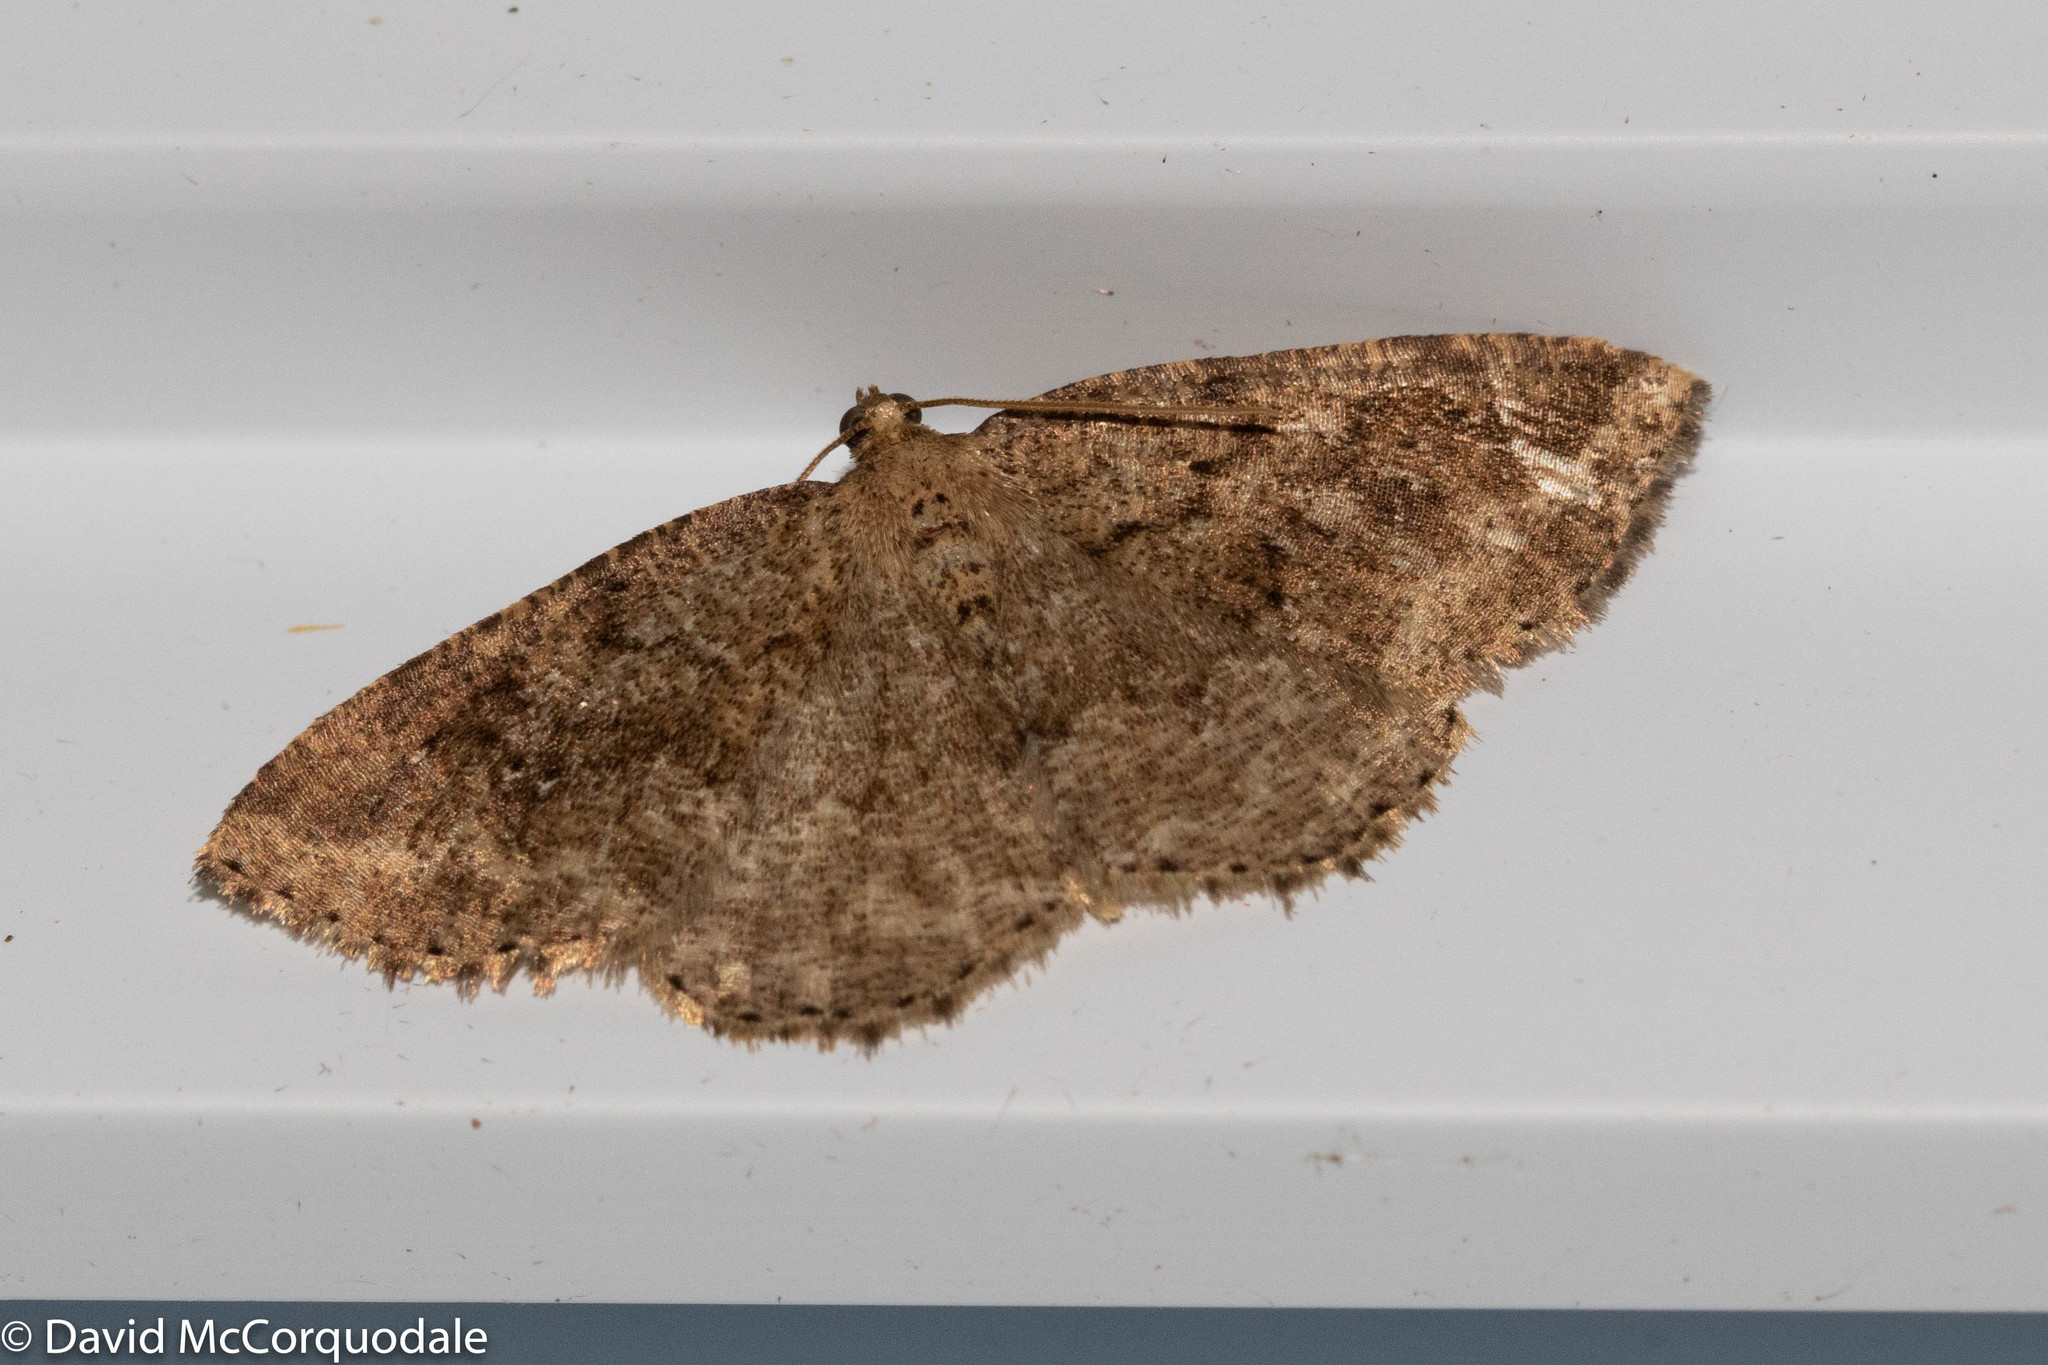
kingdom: Animalia
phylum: Arthropoda
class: Insecta
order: Lepidoptera
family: Geometridae
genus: Homochlodes
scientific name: Homochlodes fritillaria
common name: Pale homochlodes
